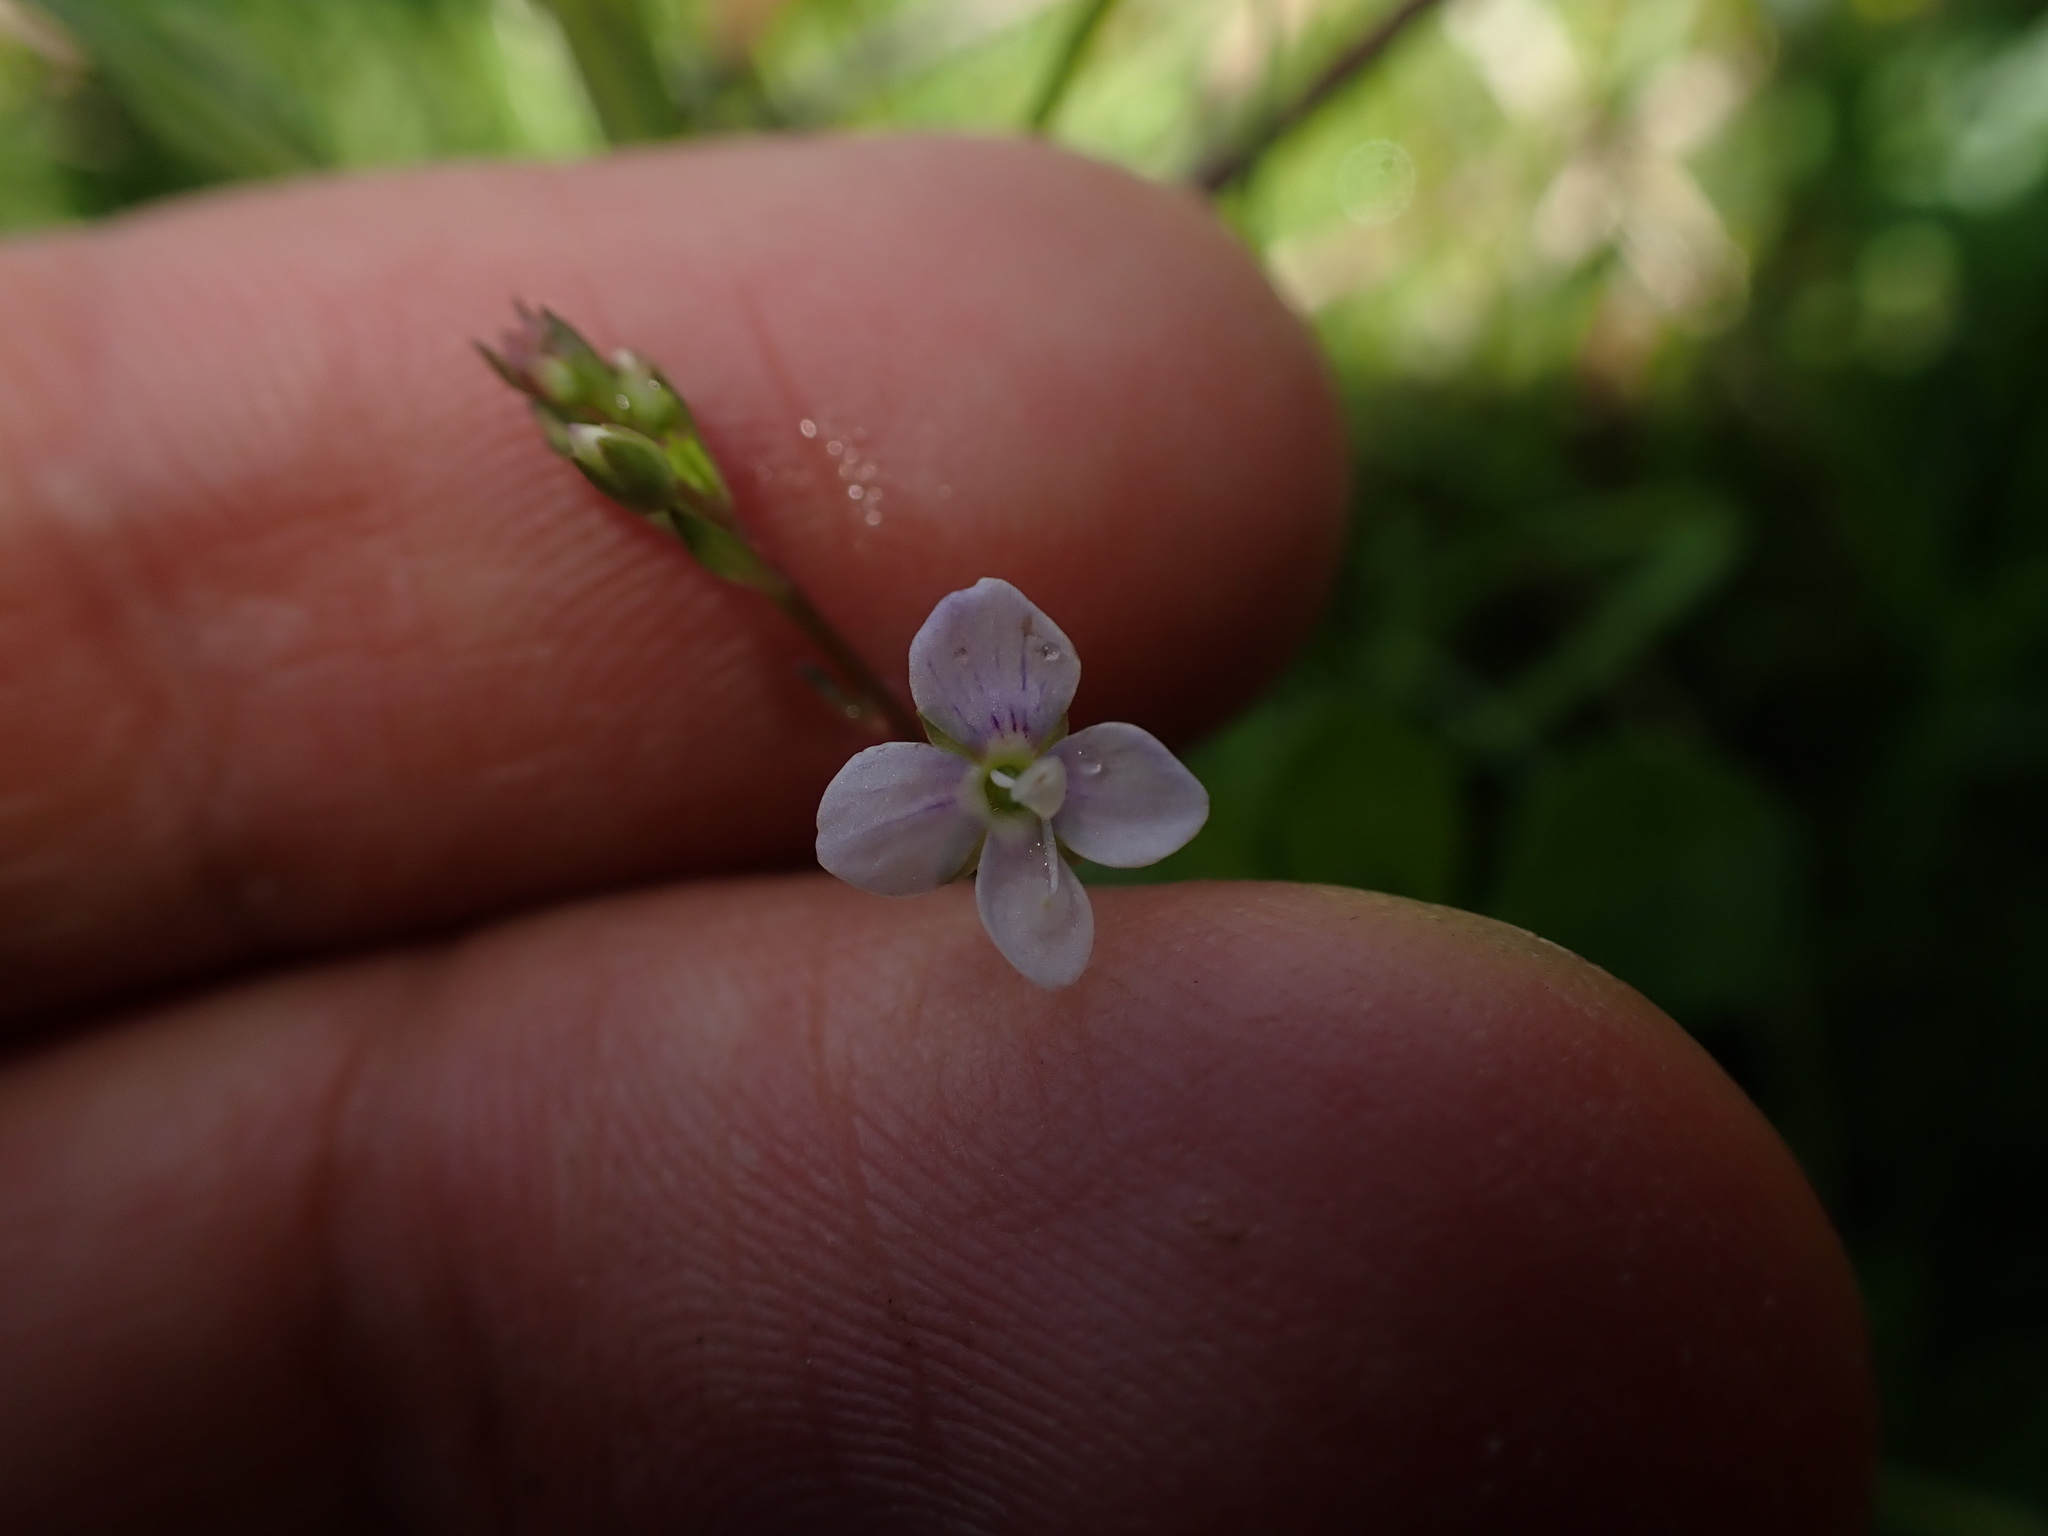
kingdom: Plantae
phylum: Tracheophyta
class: Magnoliopsida
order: Lamiales
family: Plantaginaceae
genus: Veronica
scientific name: Veronica scutellata
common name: Marsh speedwell
